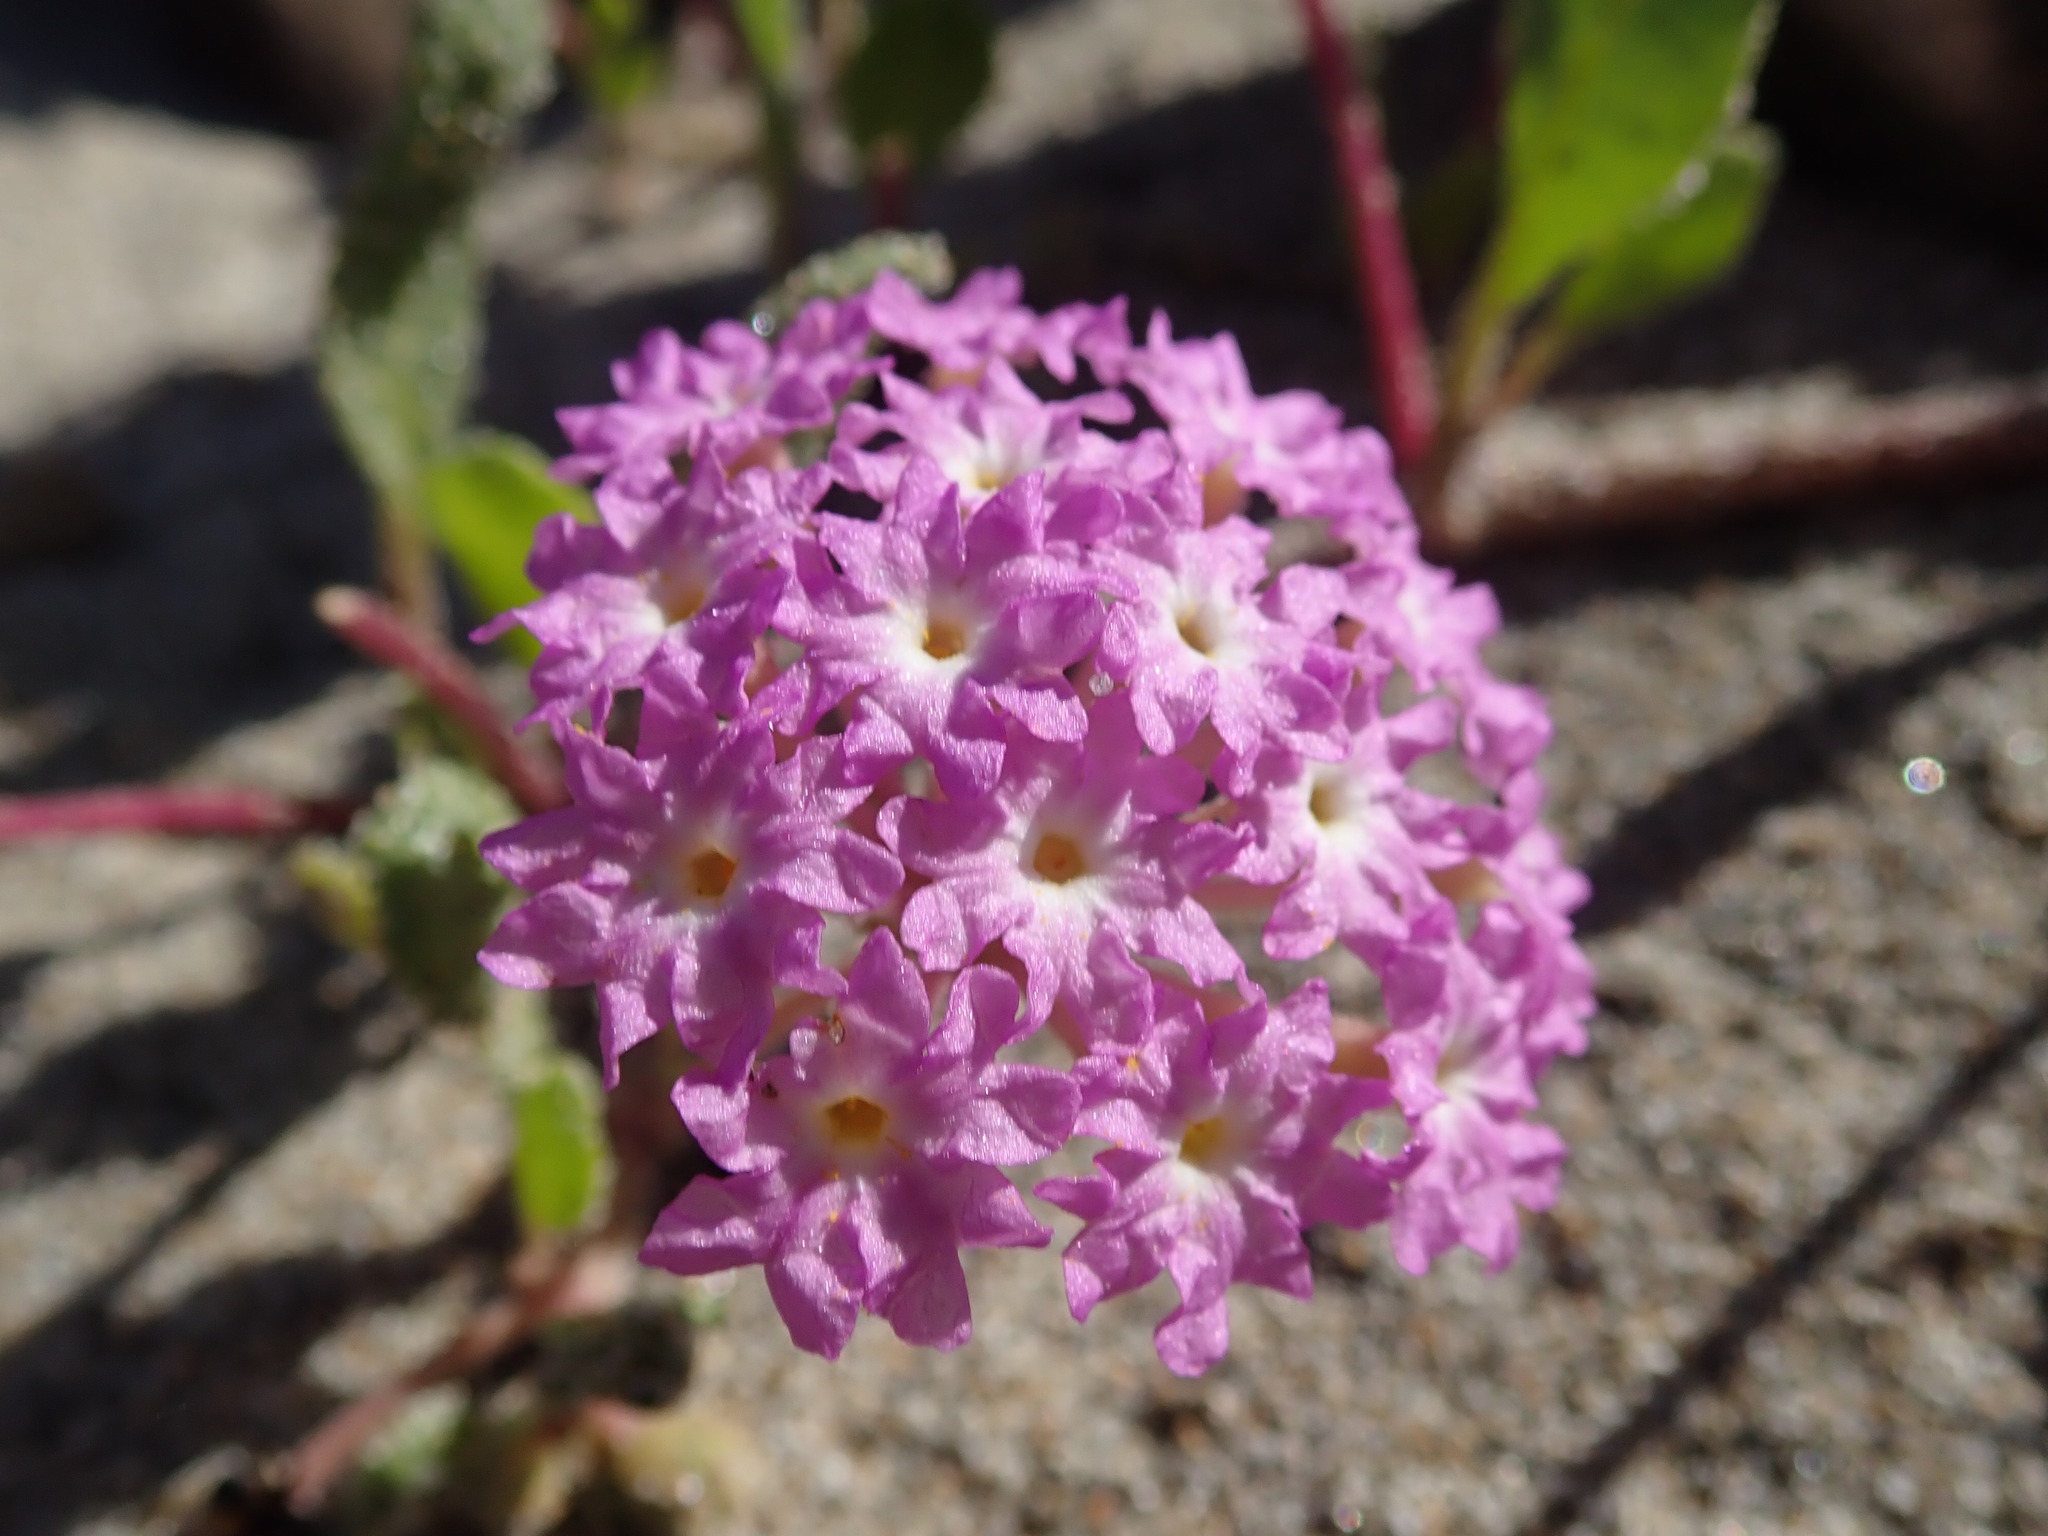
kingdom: Plantae
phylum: Tracheophyta
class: Magnoliopsida
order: Caryophyllales
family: Nyctaginaceae
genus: Abronia
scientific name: Abronia umbellata
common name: Sand-verbena
